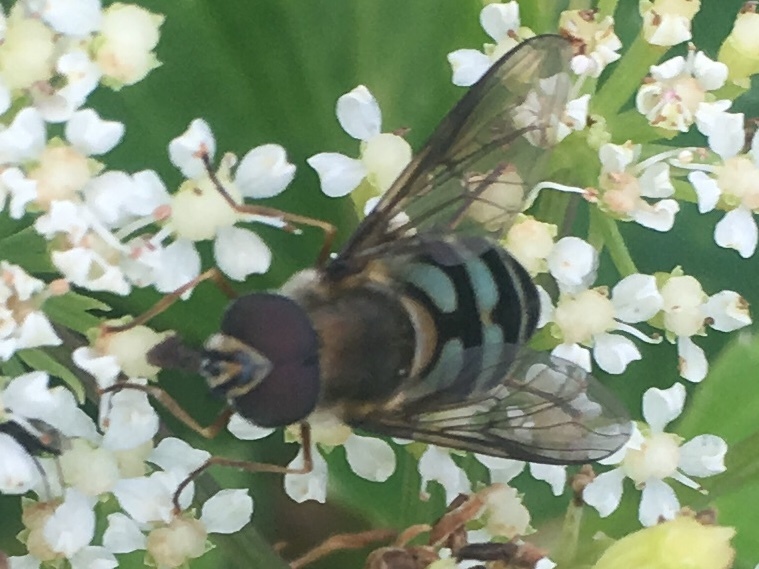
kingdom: Animalia
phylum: Arthropoda
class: Insecta
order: Diptera
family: Syrphidae
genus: Megasyrphus
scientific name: Megasyrphus laxus
